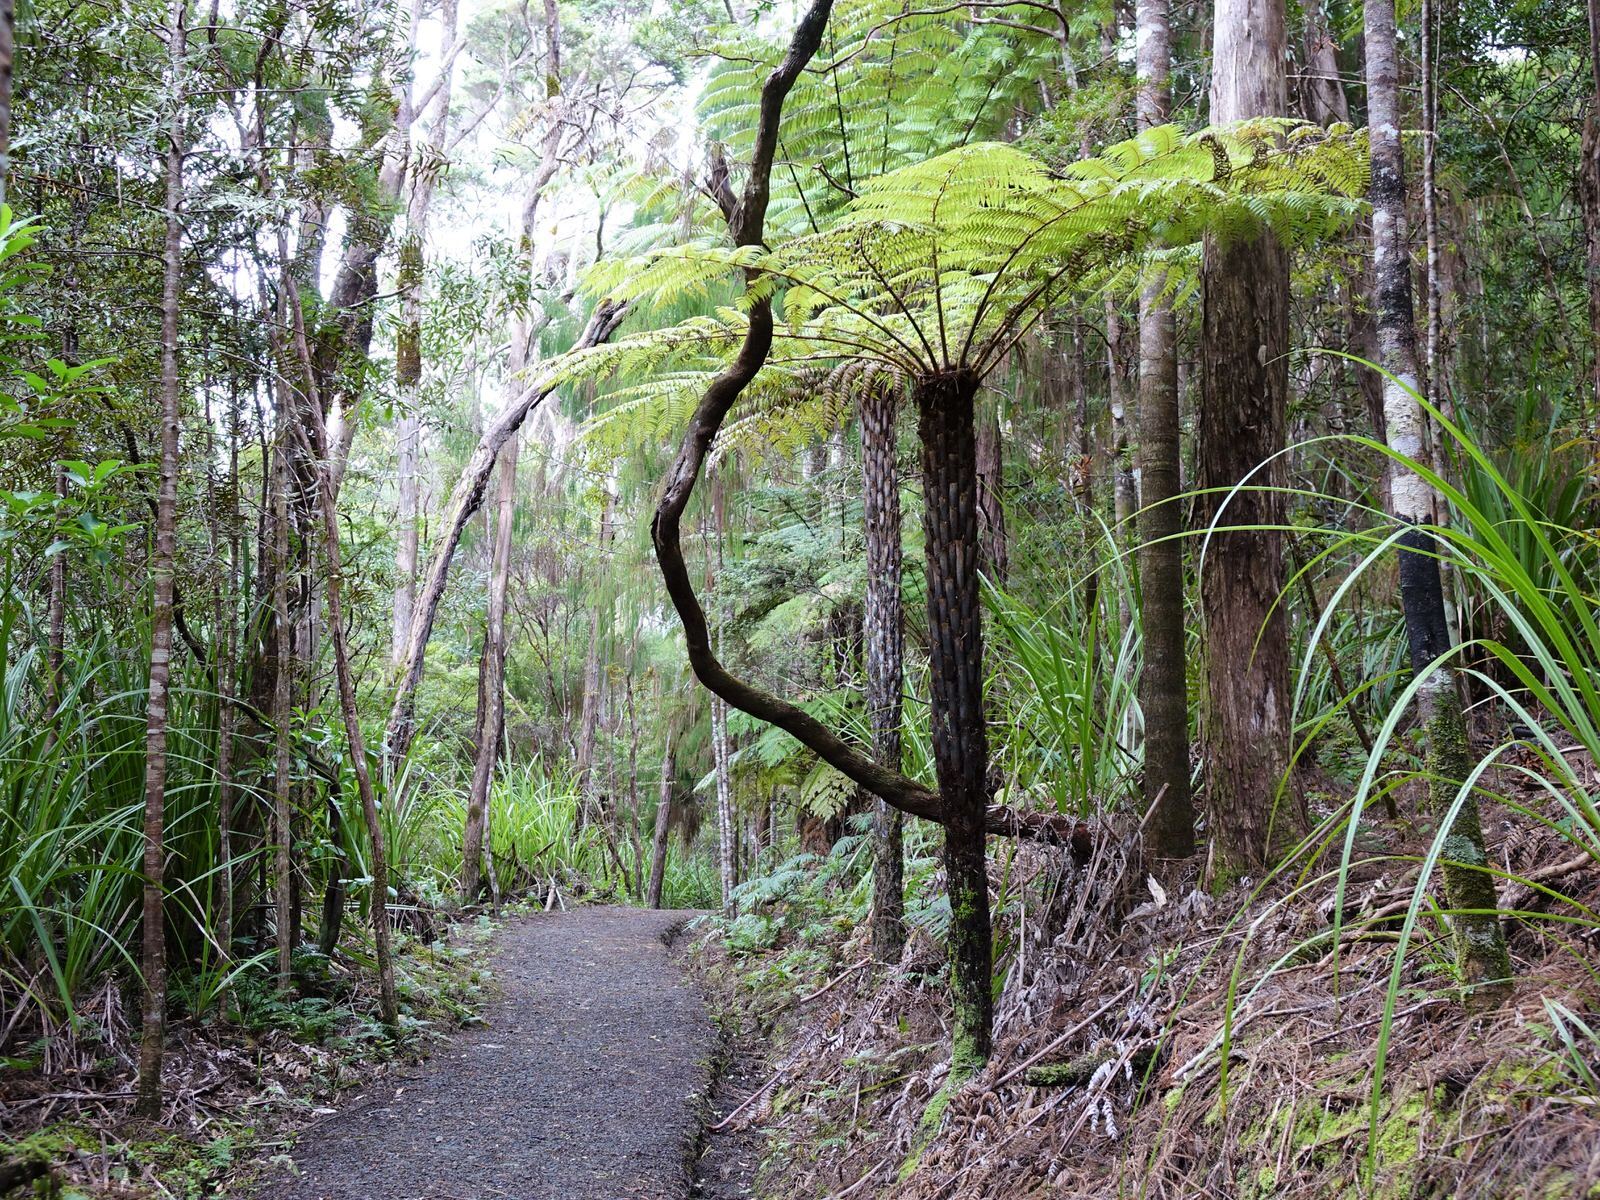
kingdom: Plantae
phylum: Tracheophyta
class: Polypodiopsida
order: Cyatheales
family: Cyatheaceae
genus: Alsophila
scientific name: Alsophila dealbata
